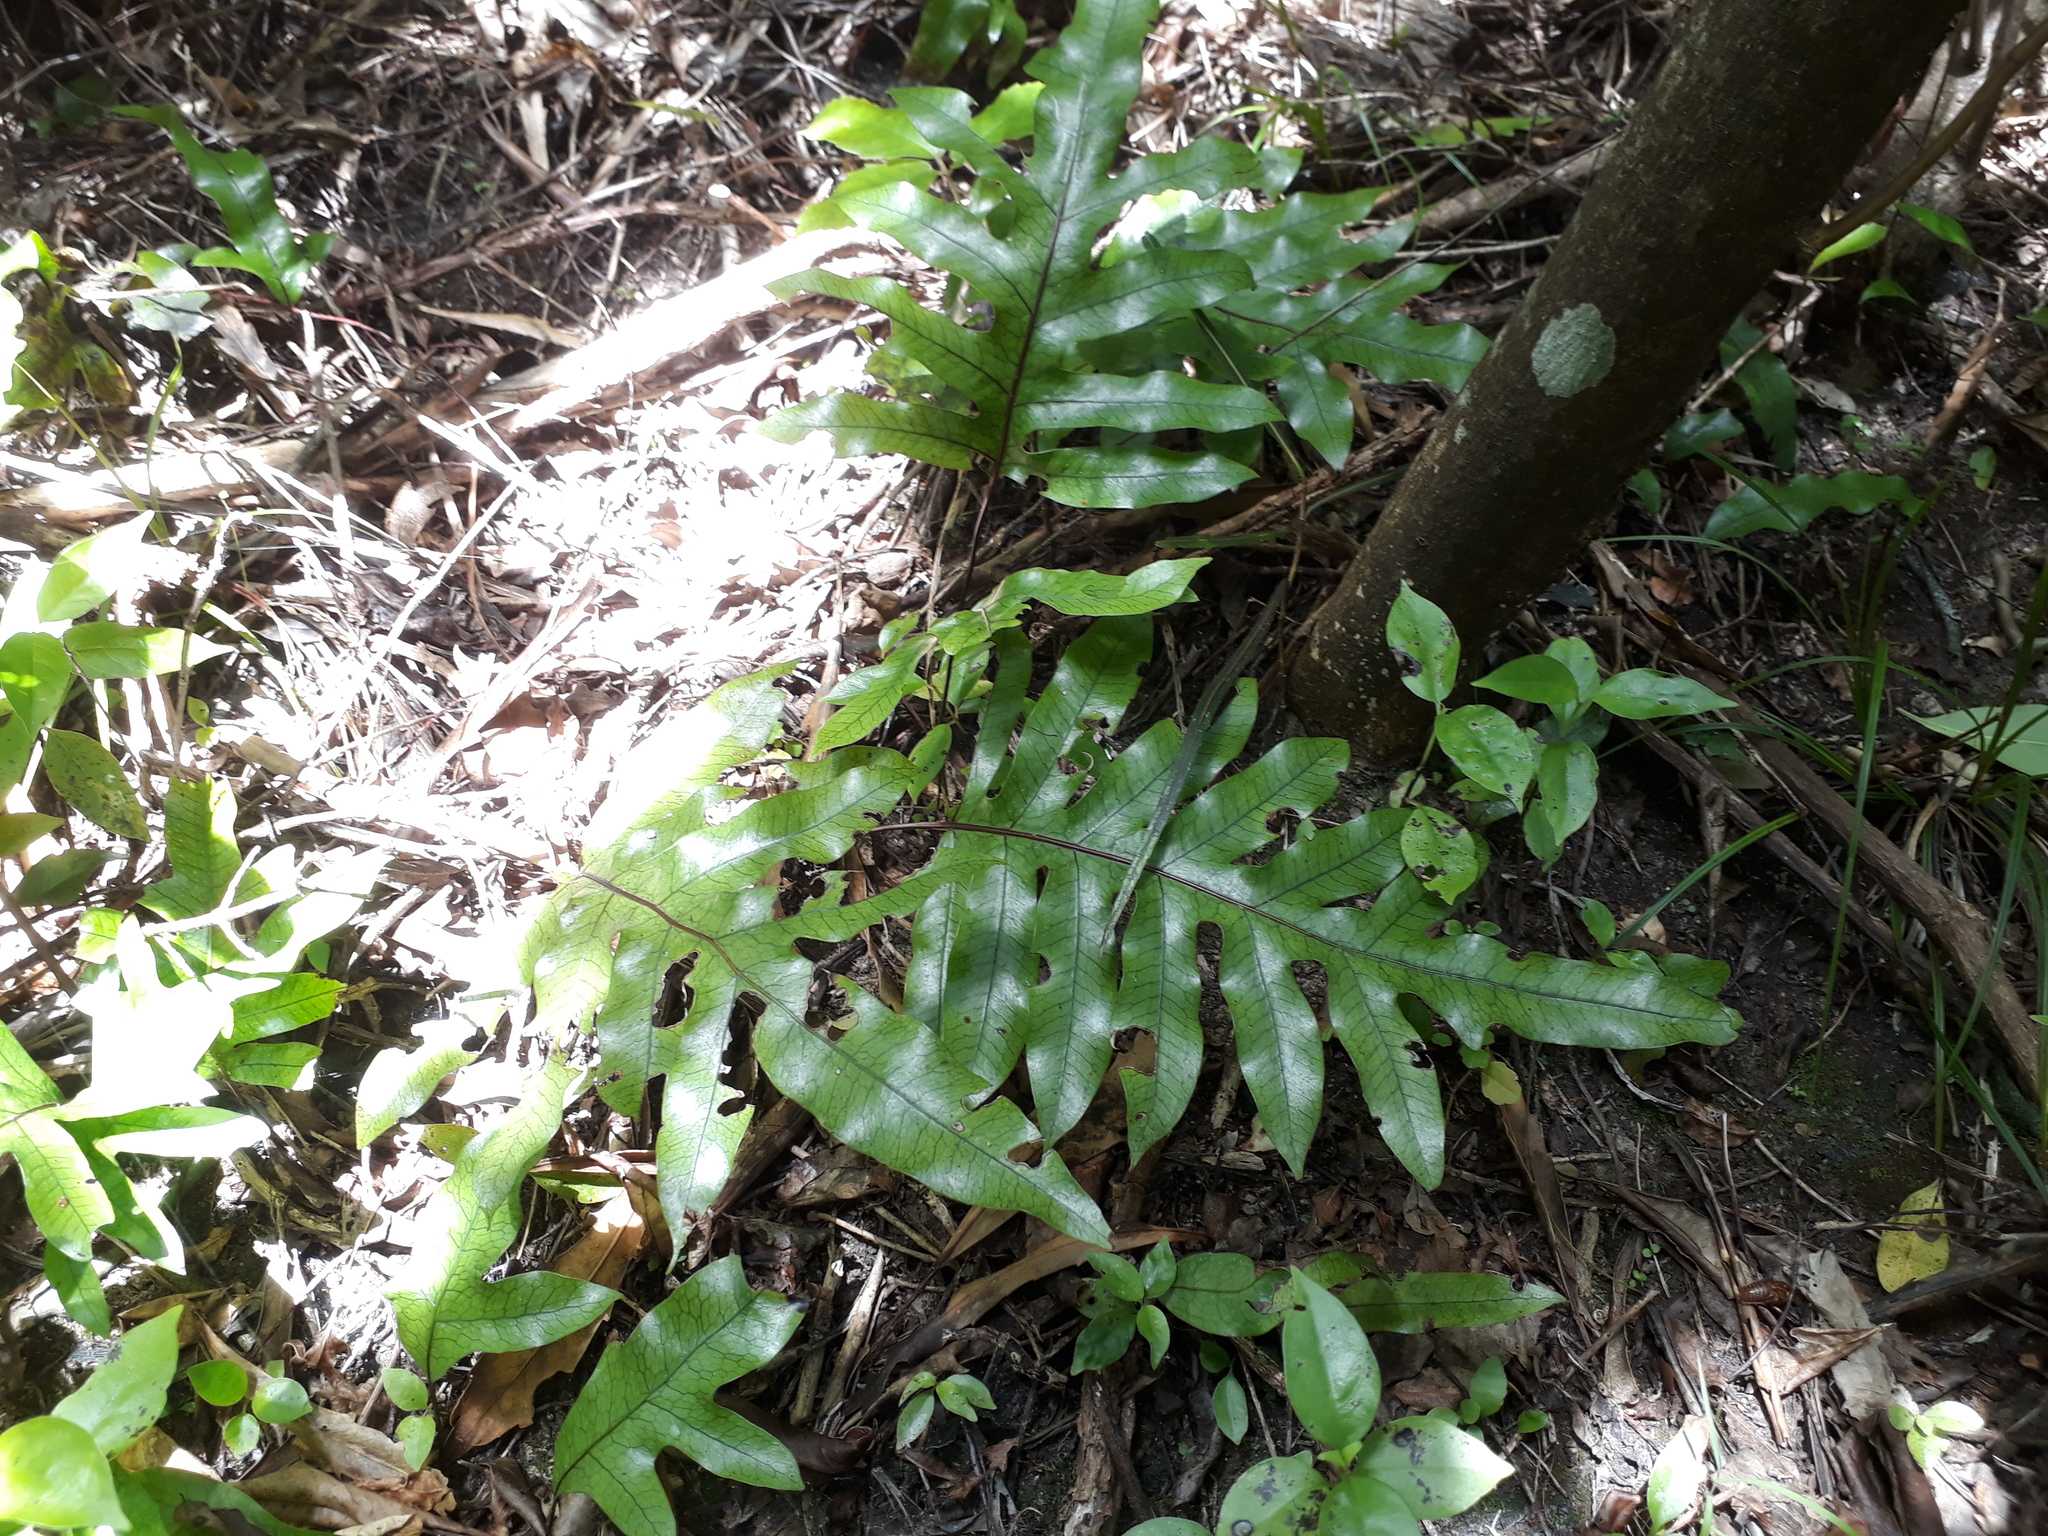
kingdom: Plantae
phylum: Tracheophyta
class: Polypodiopsida
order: Polypodiales
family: Polypodiaceae
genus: Lecanopteris
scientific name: Lecanopteris pustulata
